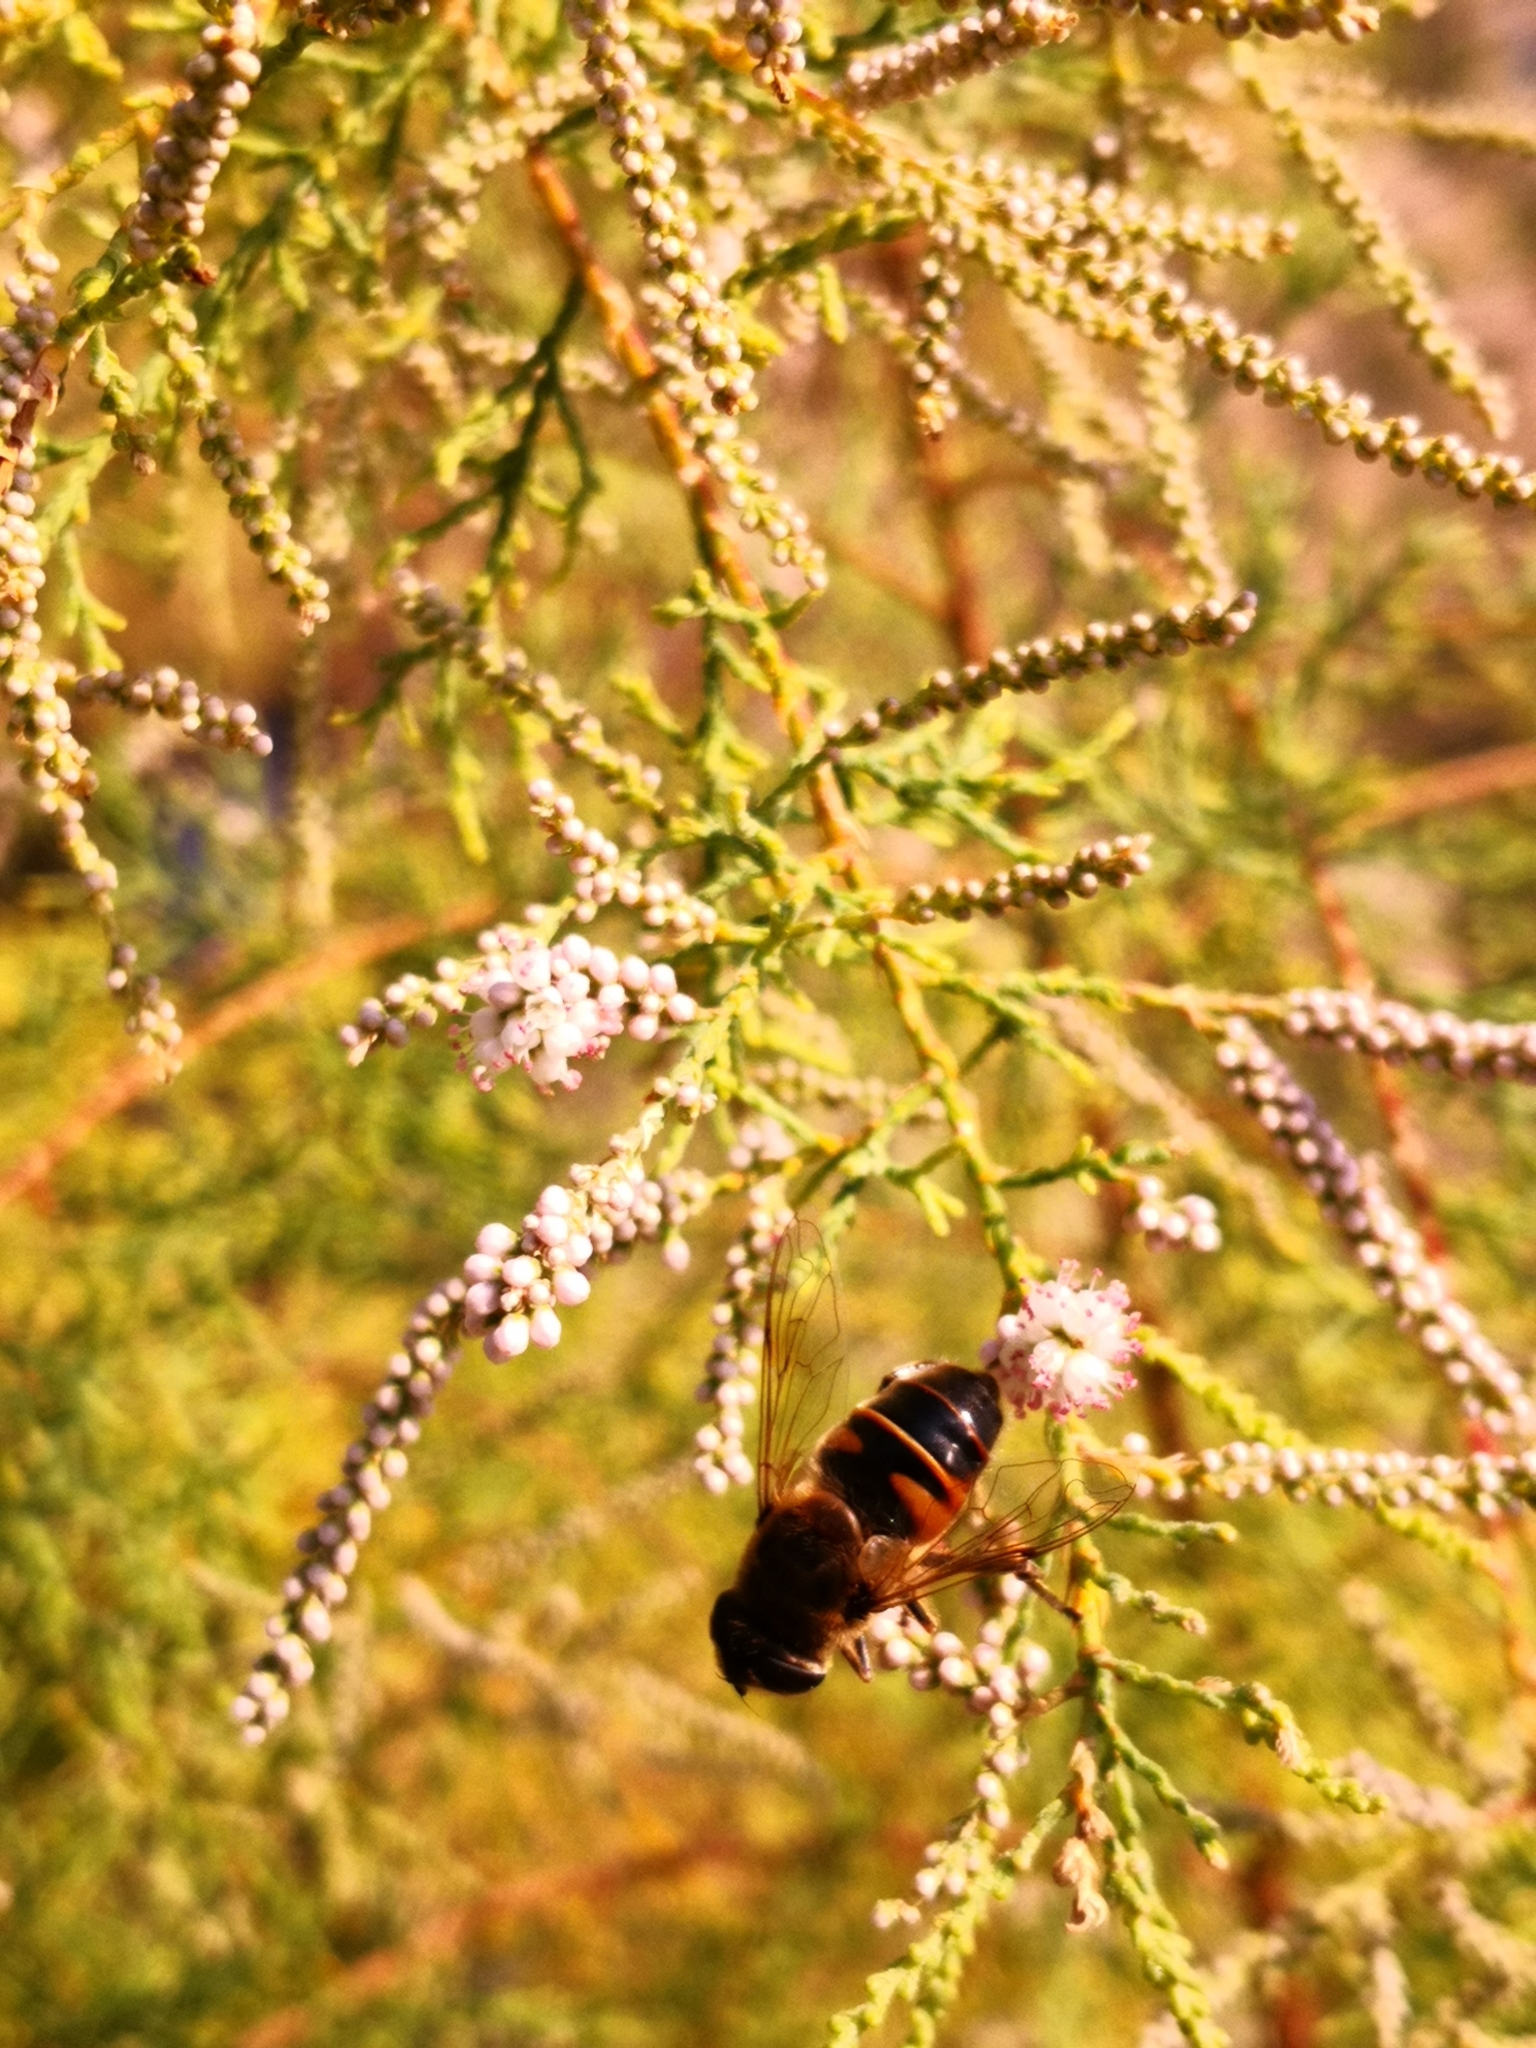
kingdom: Animalia
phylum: Arthropoda
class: Insecta
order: Diptera
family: Syrphidae
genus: Eristalis
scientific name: Eristalis tenax
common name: Drone fly
